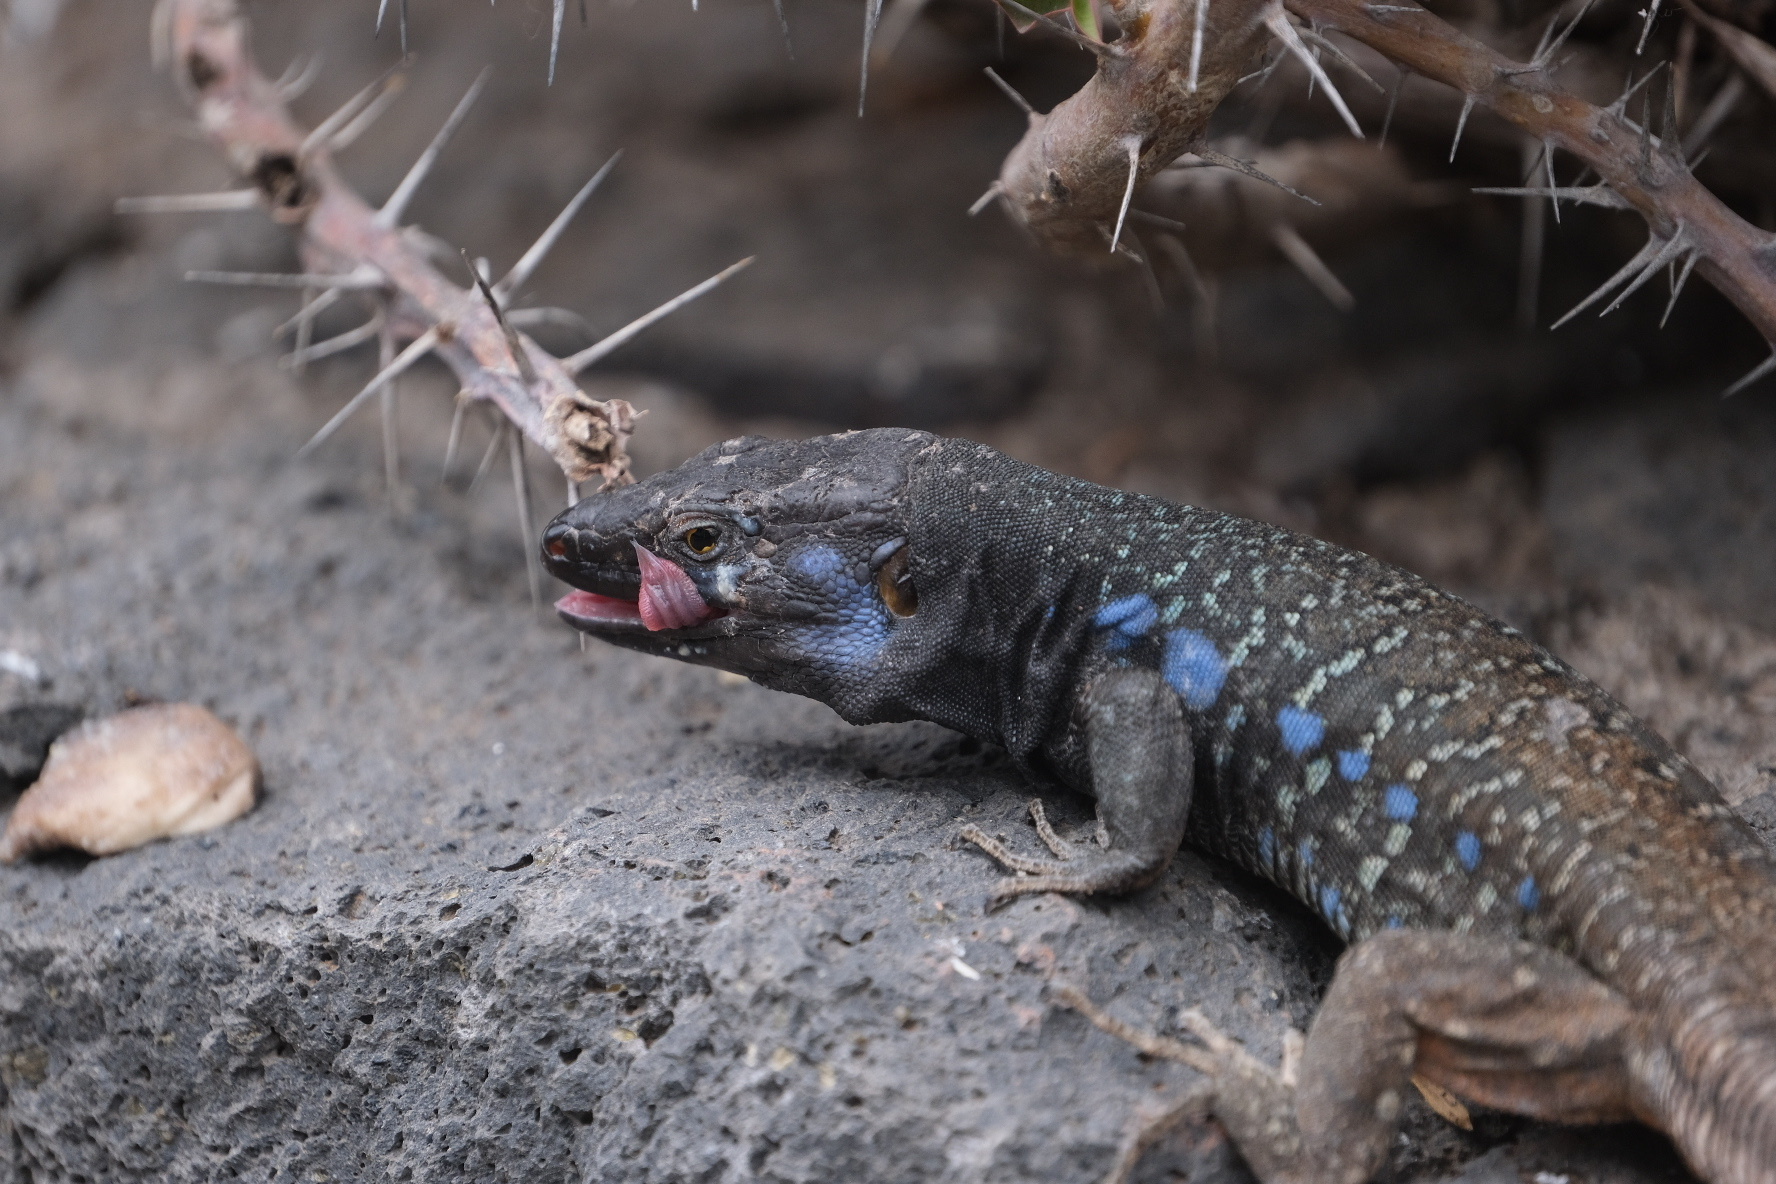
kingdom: Animalia
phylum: Chordata
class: Squamata
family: Lacertidae
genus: Gallotia
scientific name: Gallotia galloti
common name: Gallot's lizard
